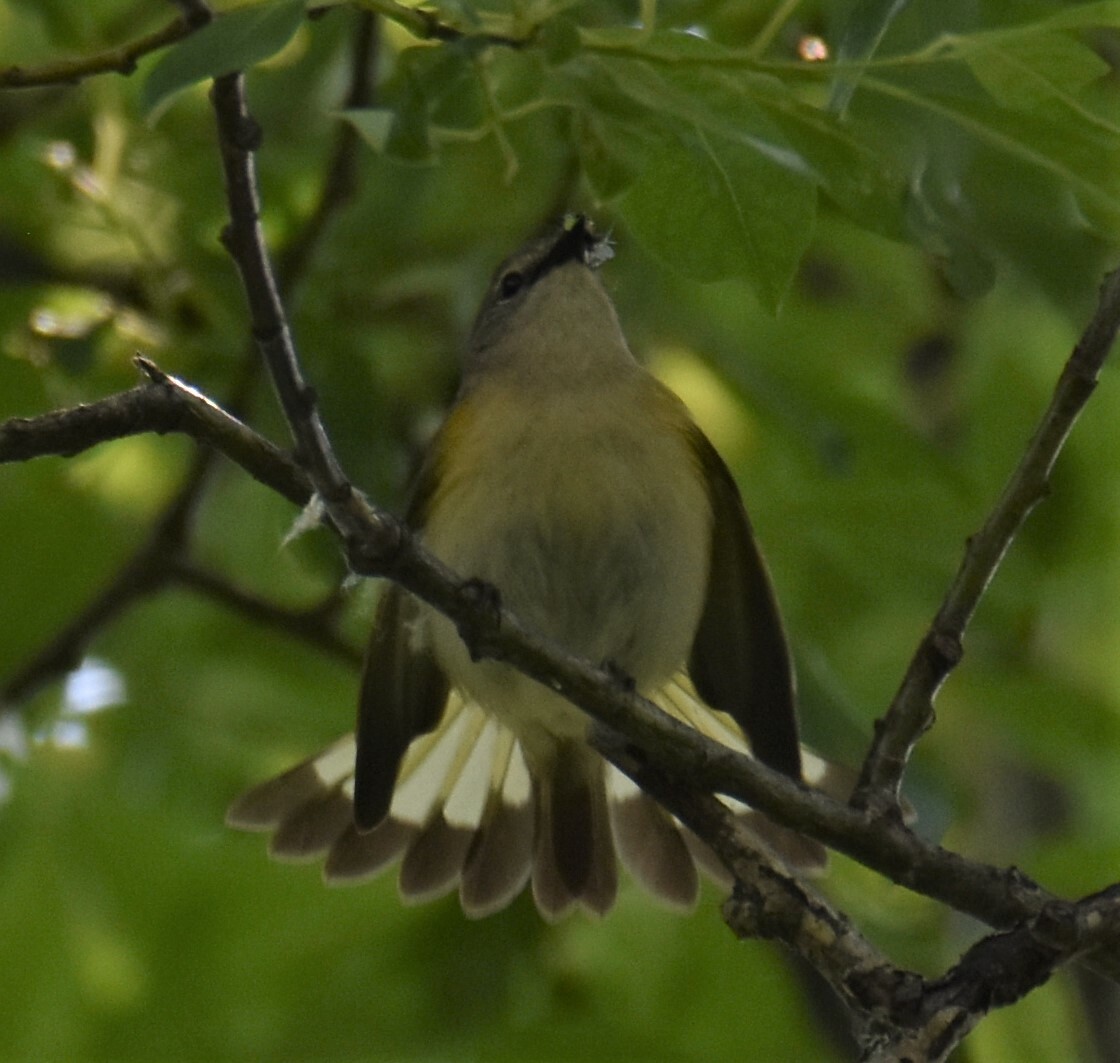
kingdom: Animalia
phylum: Chordata
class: Aves
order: Passeriformes
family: Parulidae
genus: Setophaga
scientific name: Setophaga ruticilla
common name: American redstart
